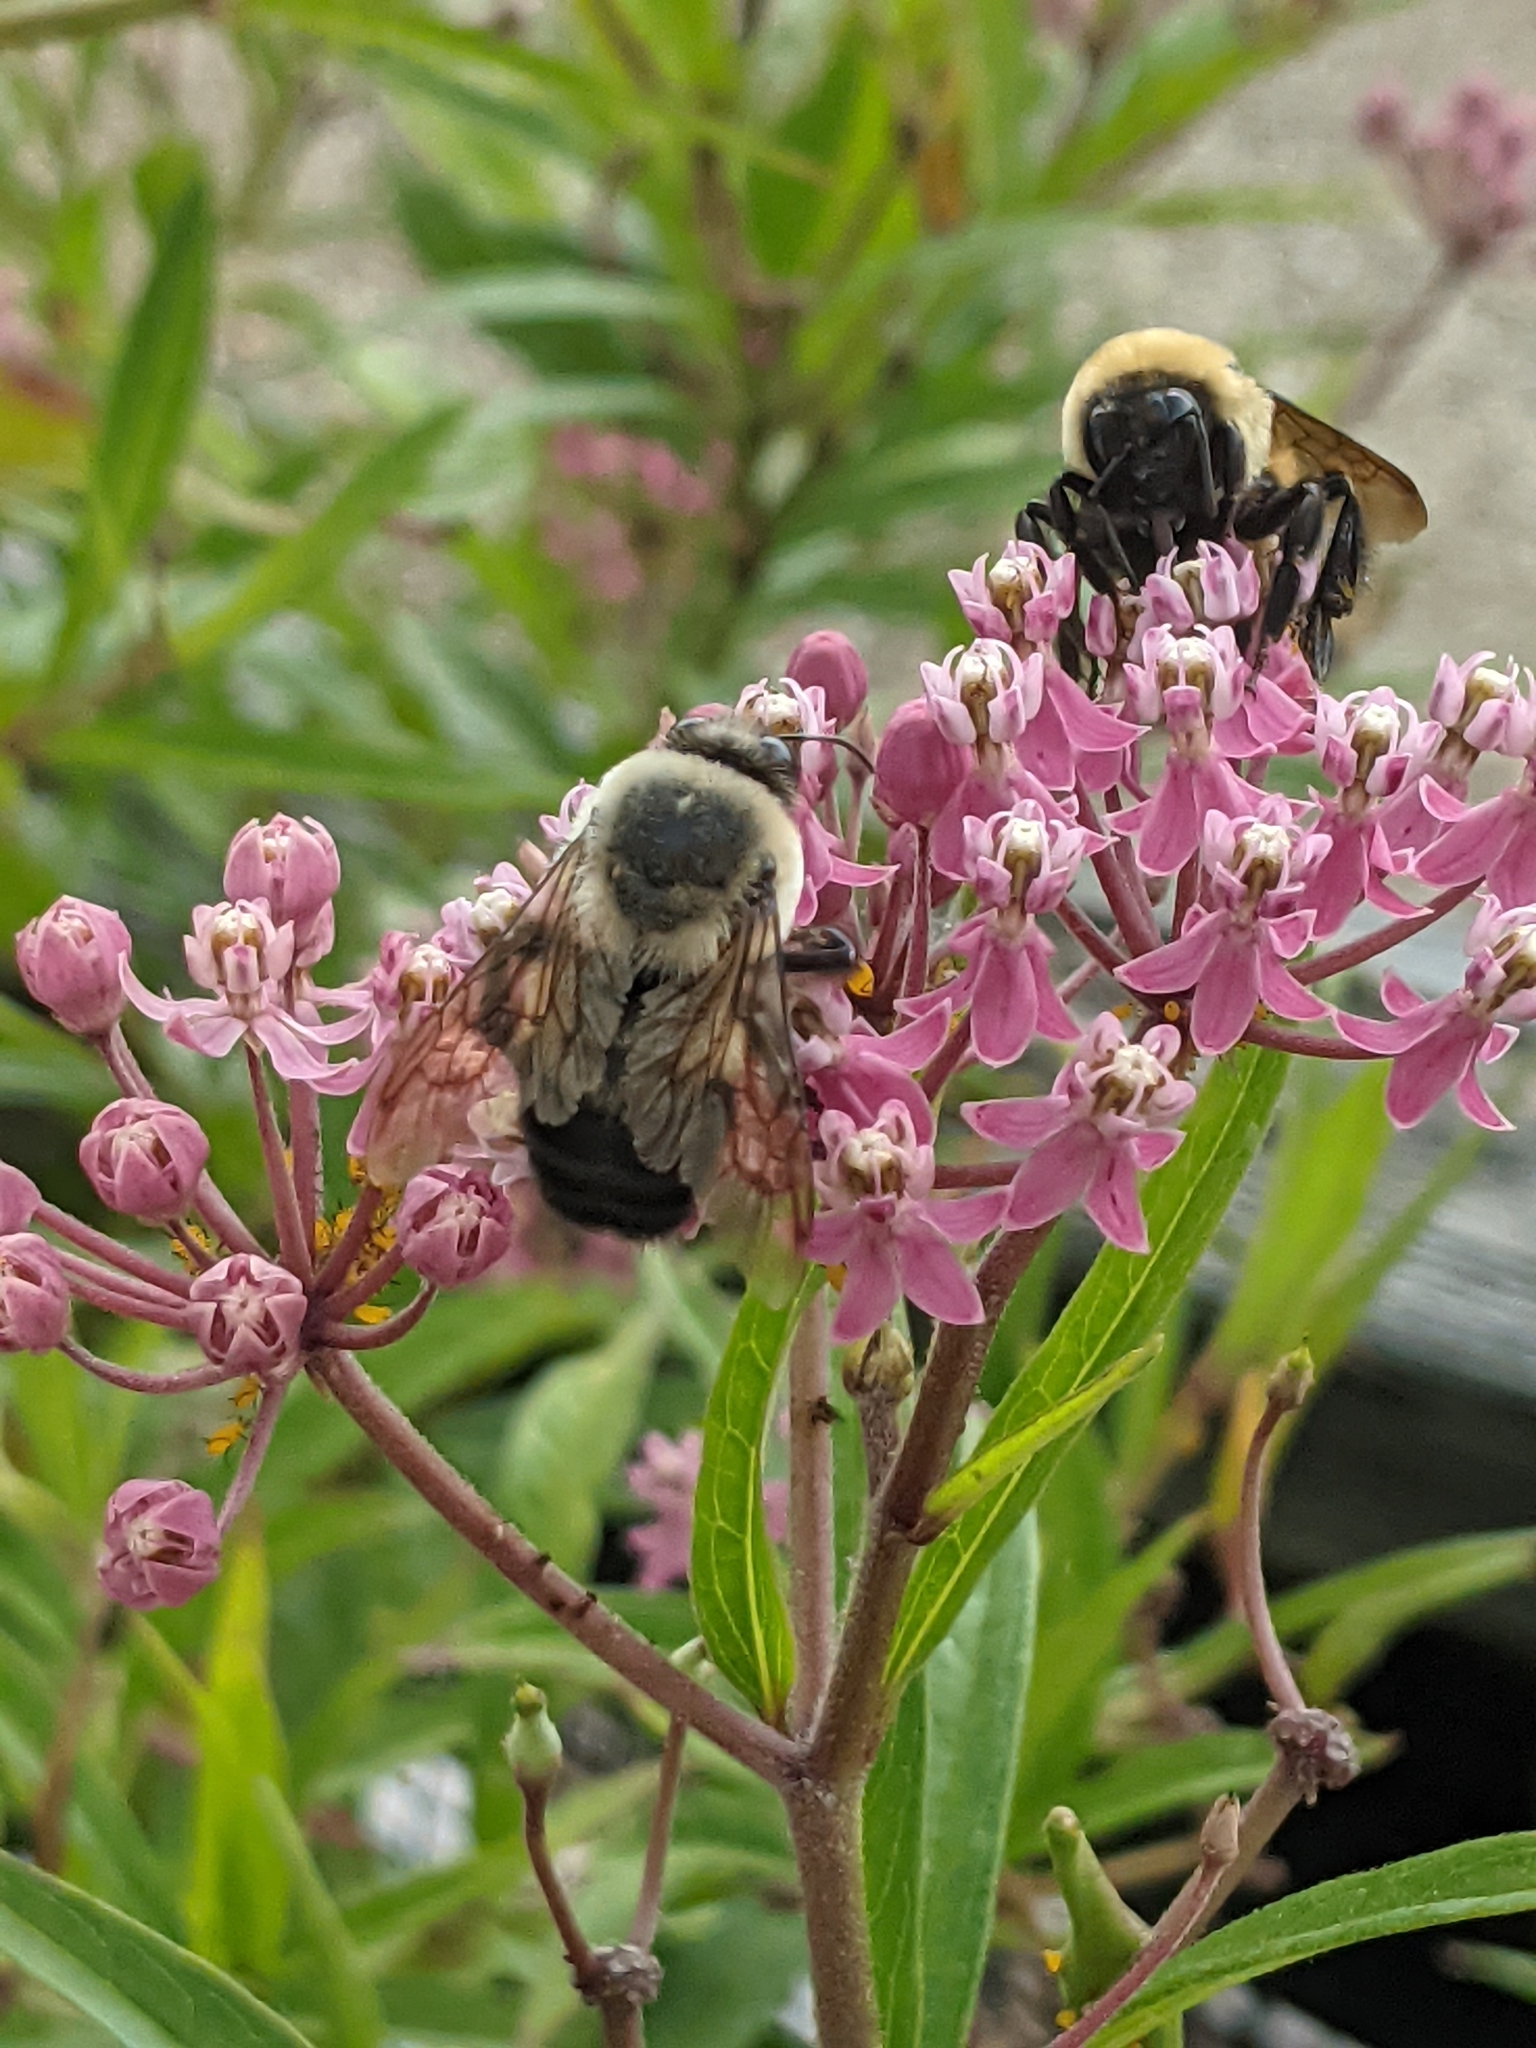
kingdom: Animalia
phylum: Arthropoda
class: Insecta
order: Hymenoptera
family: Apidae
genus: Bombus
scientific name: Bombus griseocollis
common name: Brown-belted bumble bee
